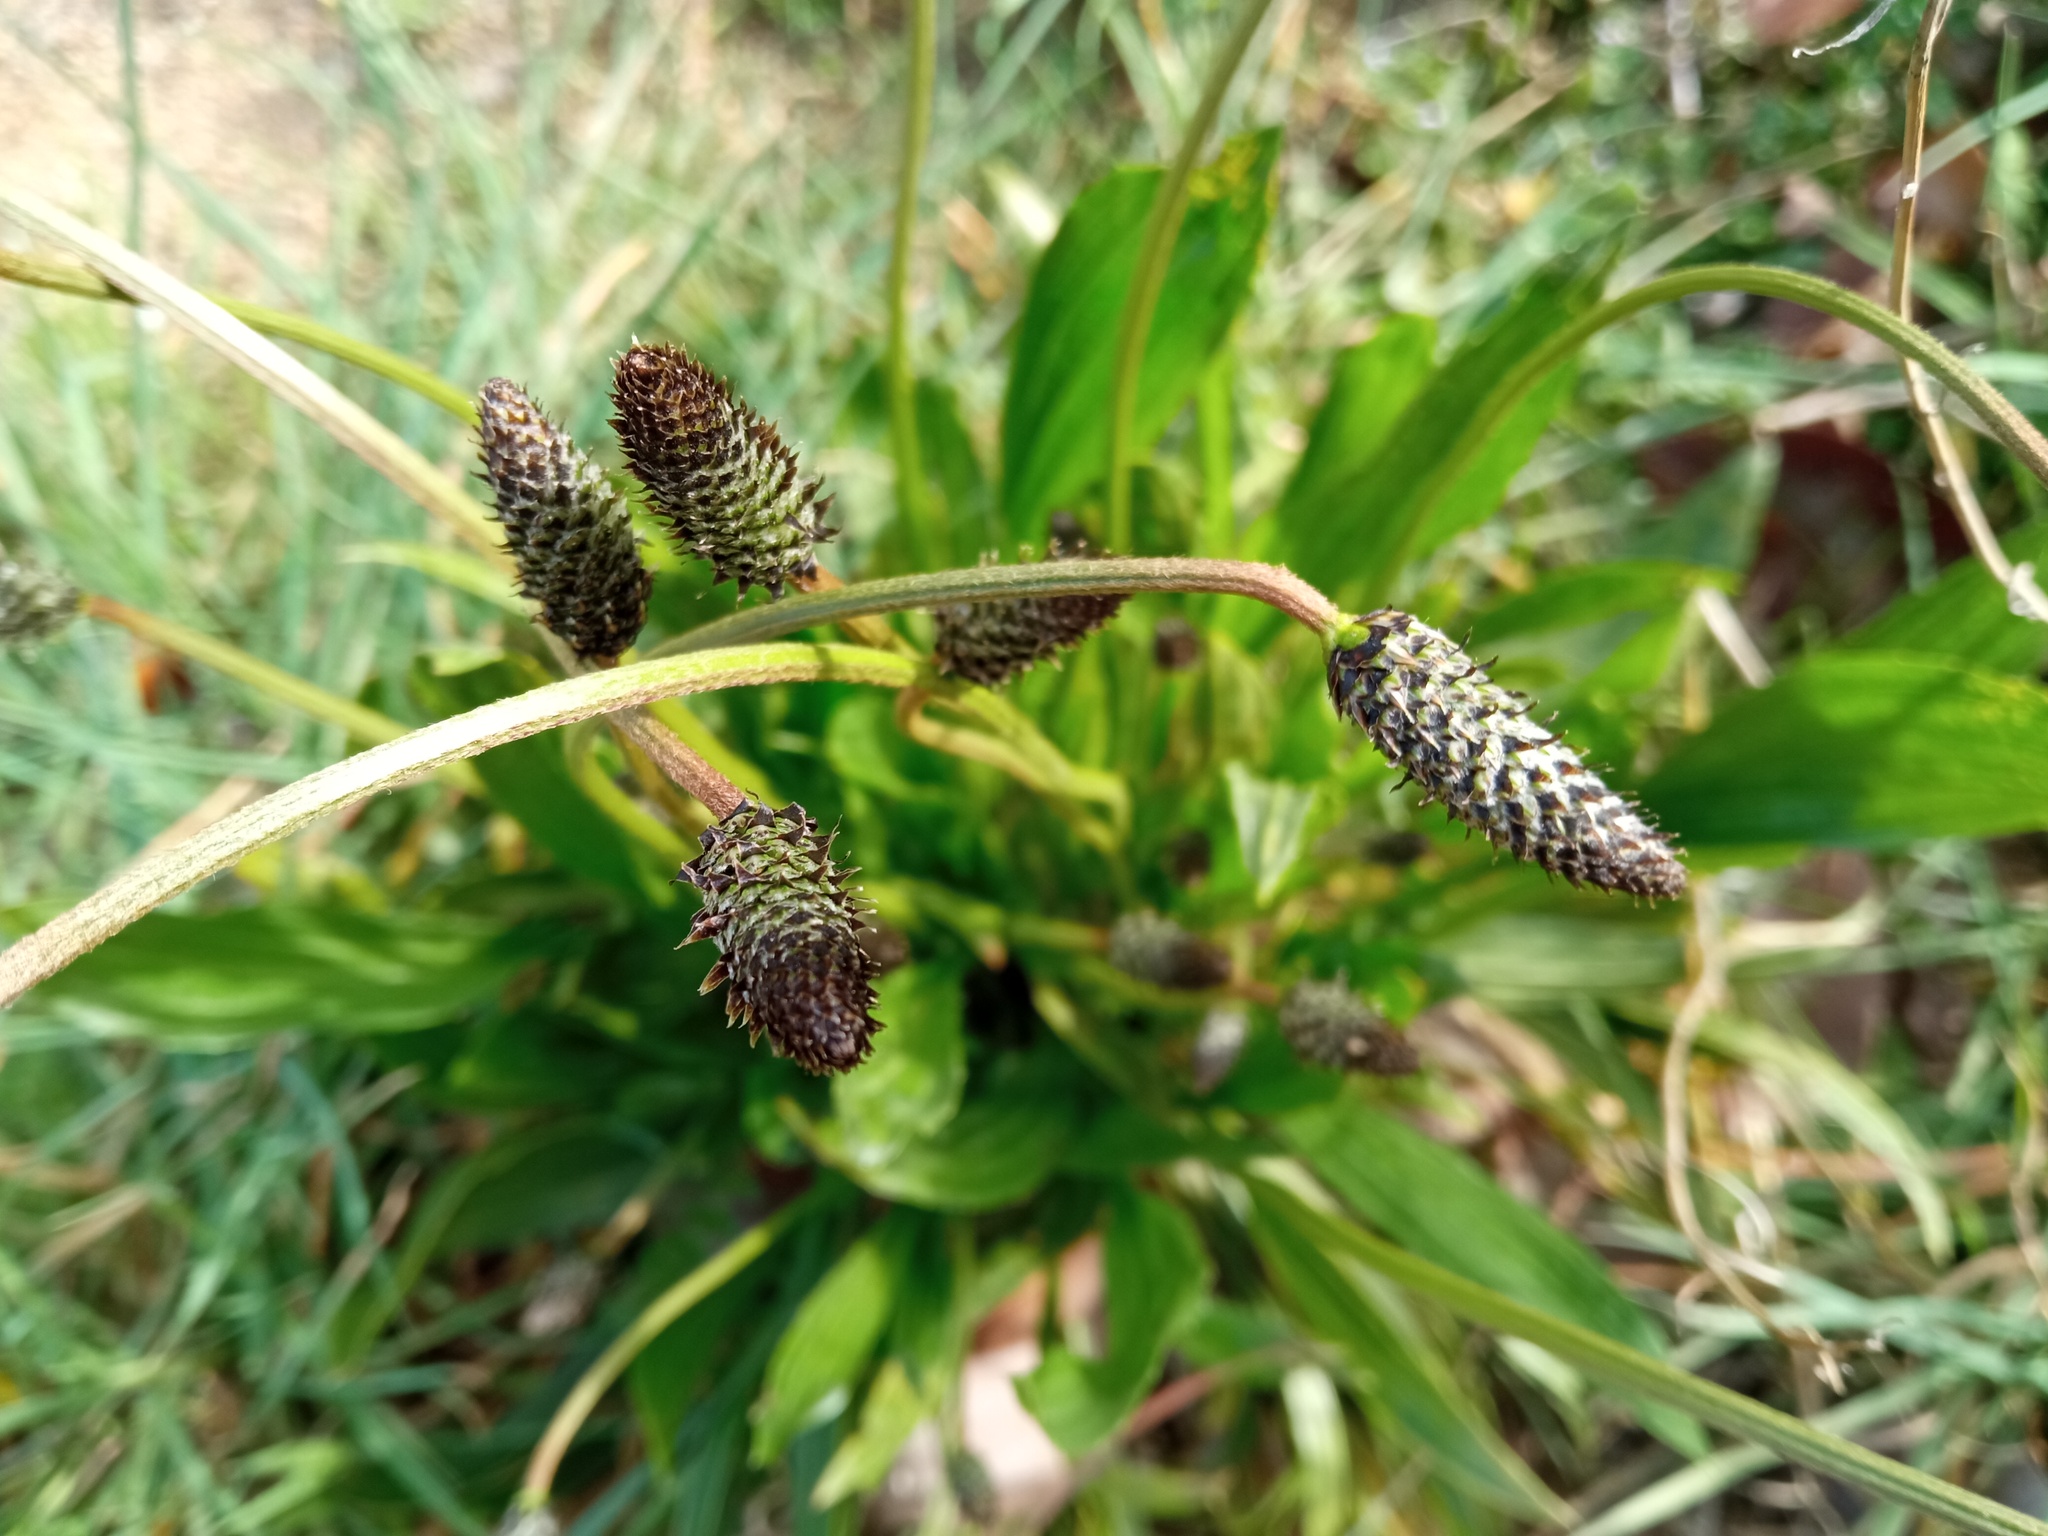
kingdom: Plantae
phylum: Tracheophyta
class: Magnoliopsida
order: Lamiales
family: Plantaginaceae
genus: Plantago
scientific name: Plantago lanceolata
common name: Ribwort plantain
